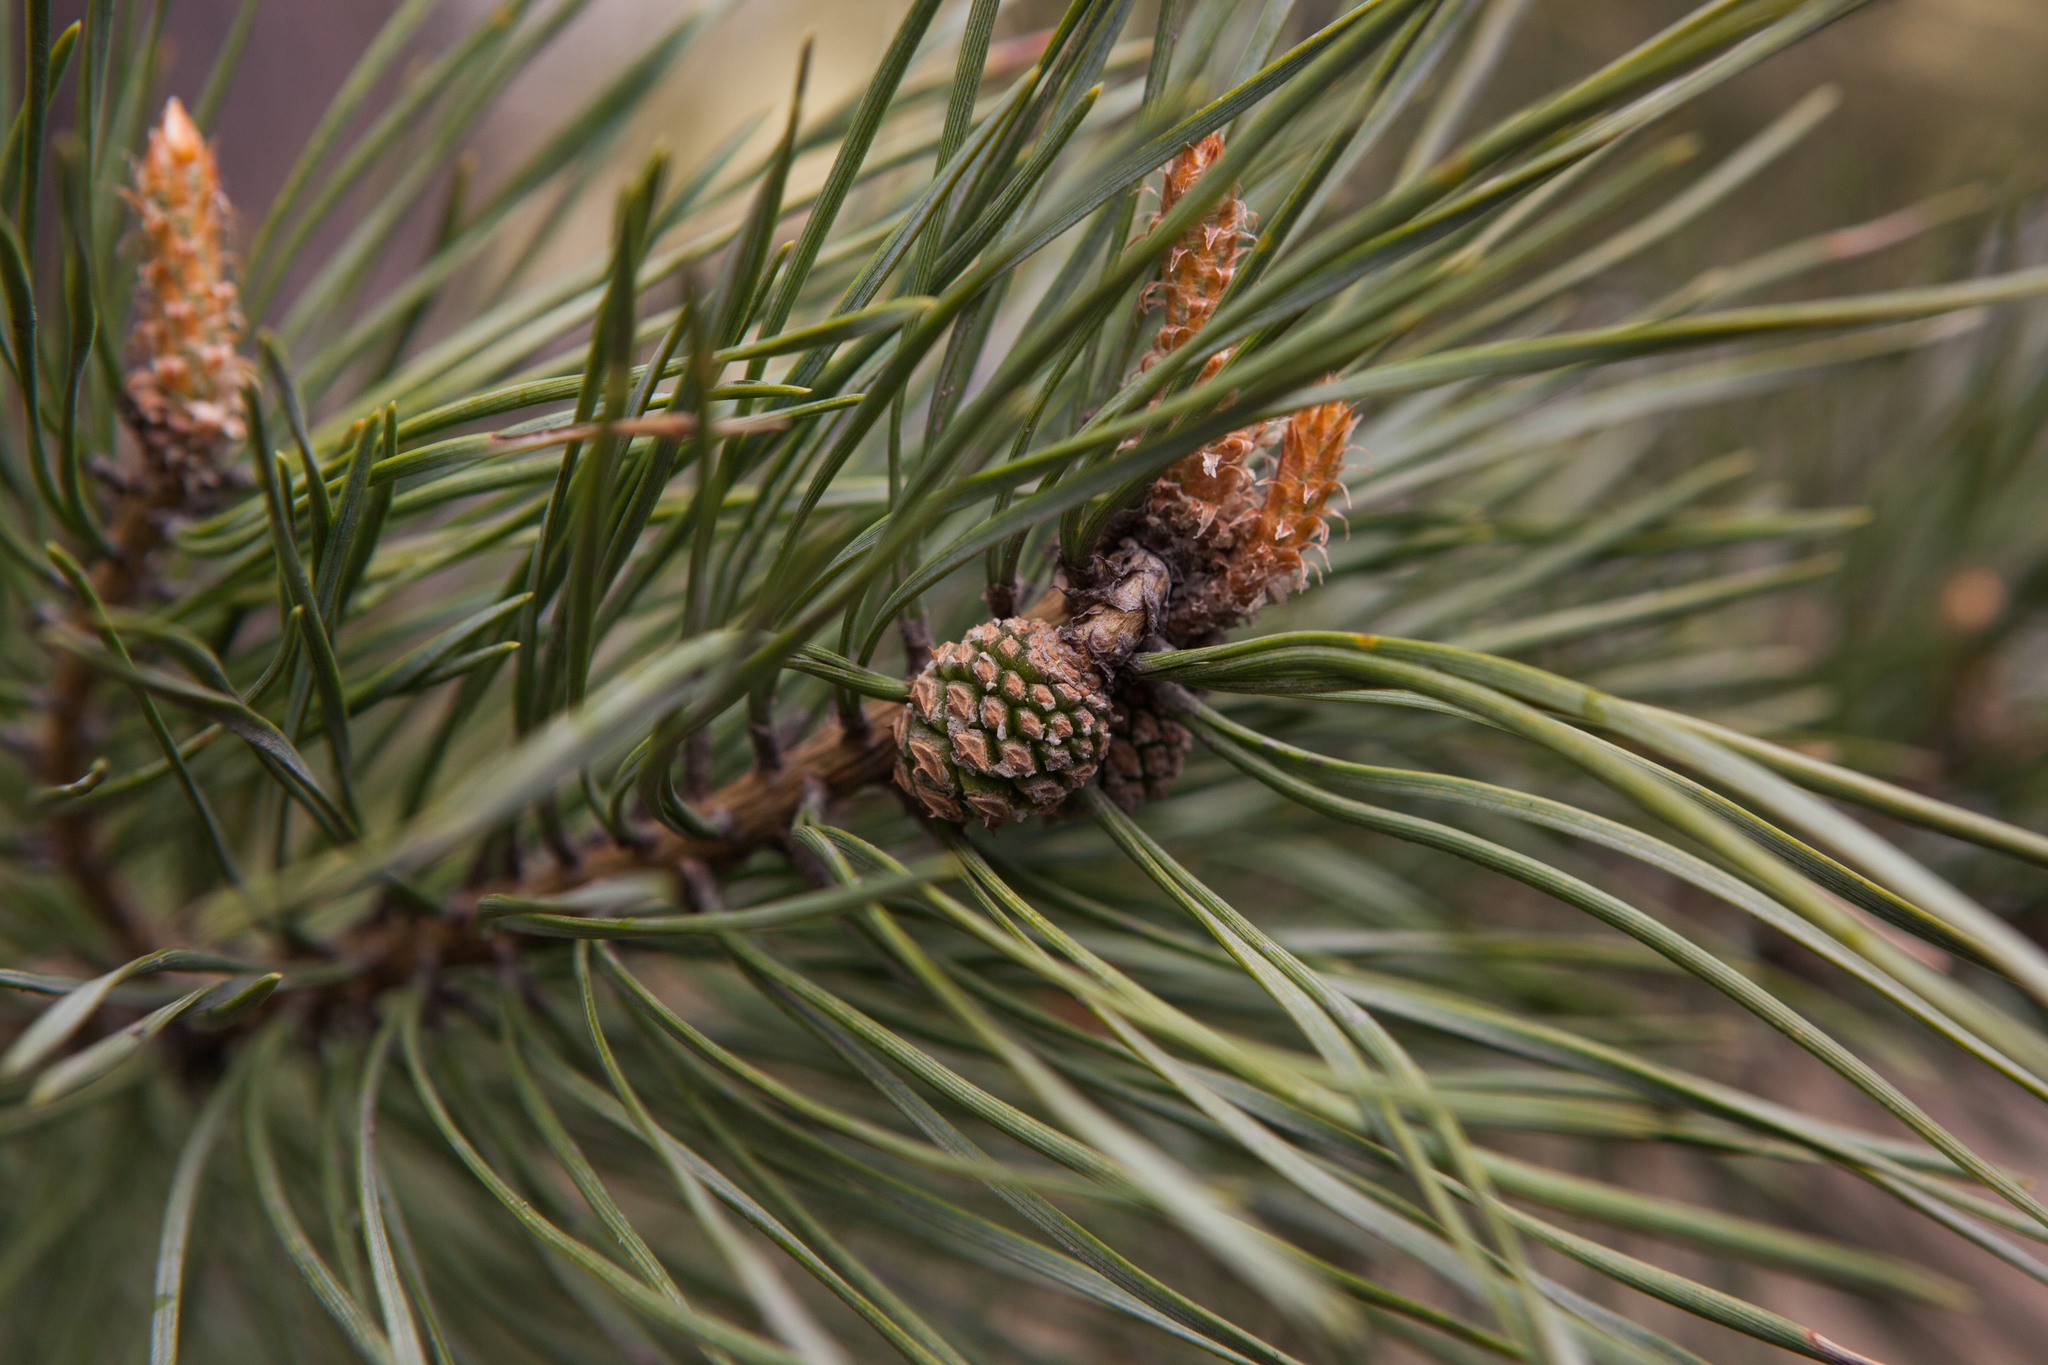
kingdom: Plantae
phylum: Tracheophyta
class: Pinopsida
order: Pinales
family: Pinaceae
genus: Pinus
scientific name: Pinus sylvestris
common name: Scots pine
